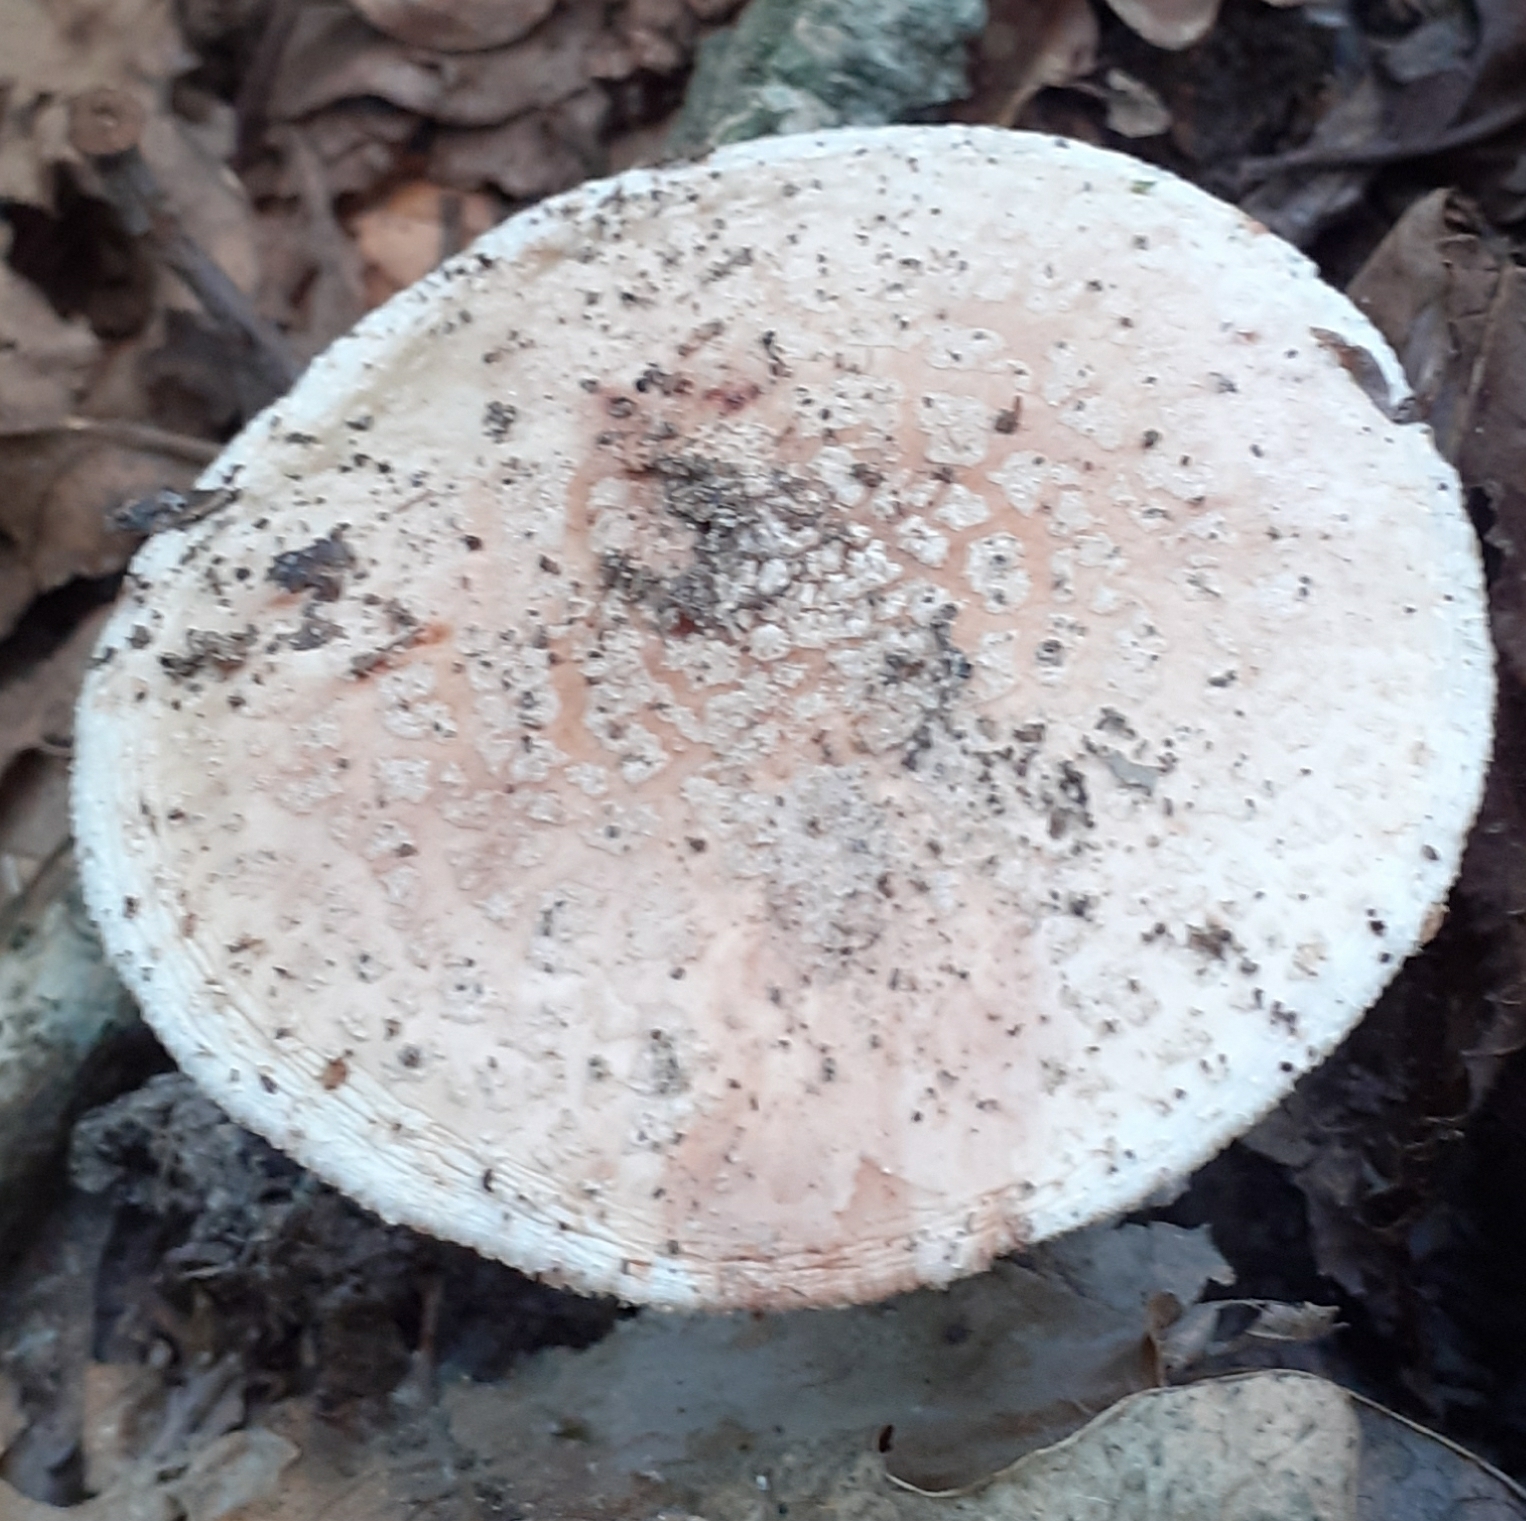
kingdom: Fungi
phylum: Basidiomycota
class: Agaricomycetes
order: Agaricales
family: Amanitaceae
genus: Amanita
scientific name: Amanita rubescens
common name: Blusher
